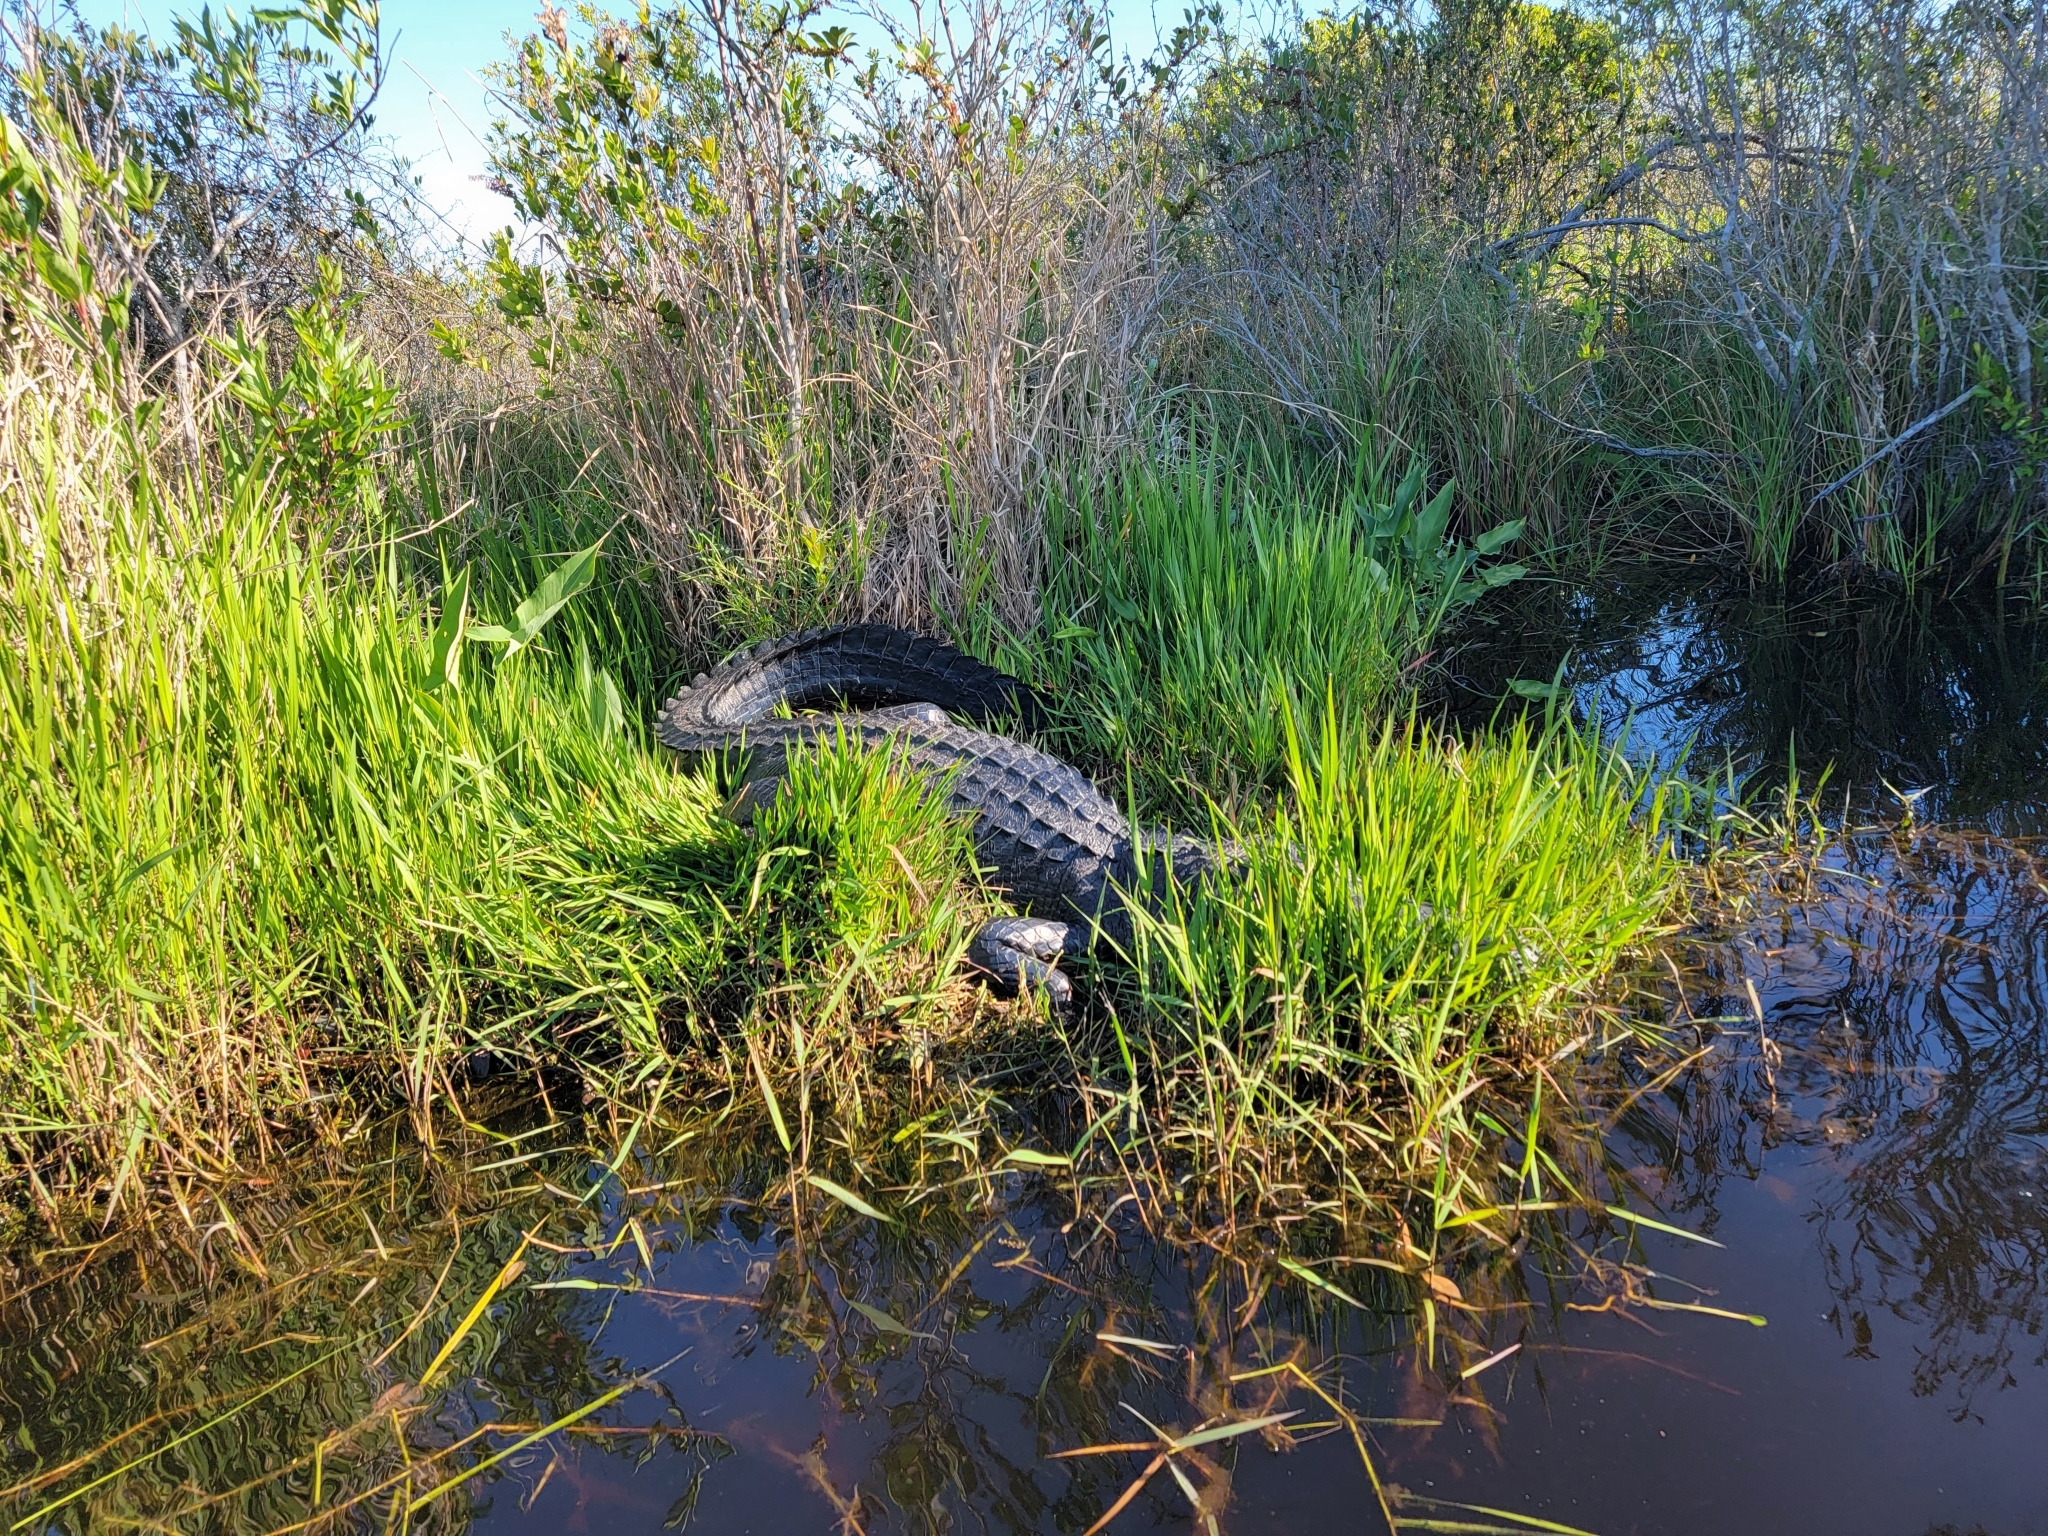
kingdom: Animalia
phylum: Chordata
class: Crocodylia
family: Alligatoridae
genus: Alligator
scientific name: Alligator mississippiensis
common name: American alligator
